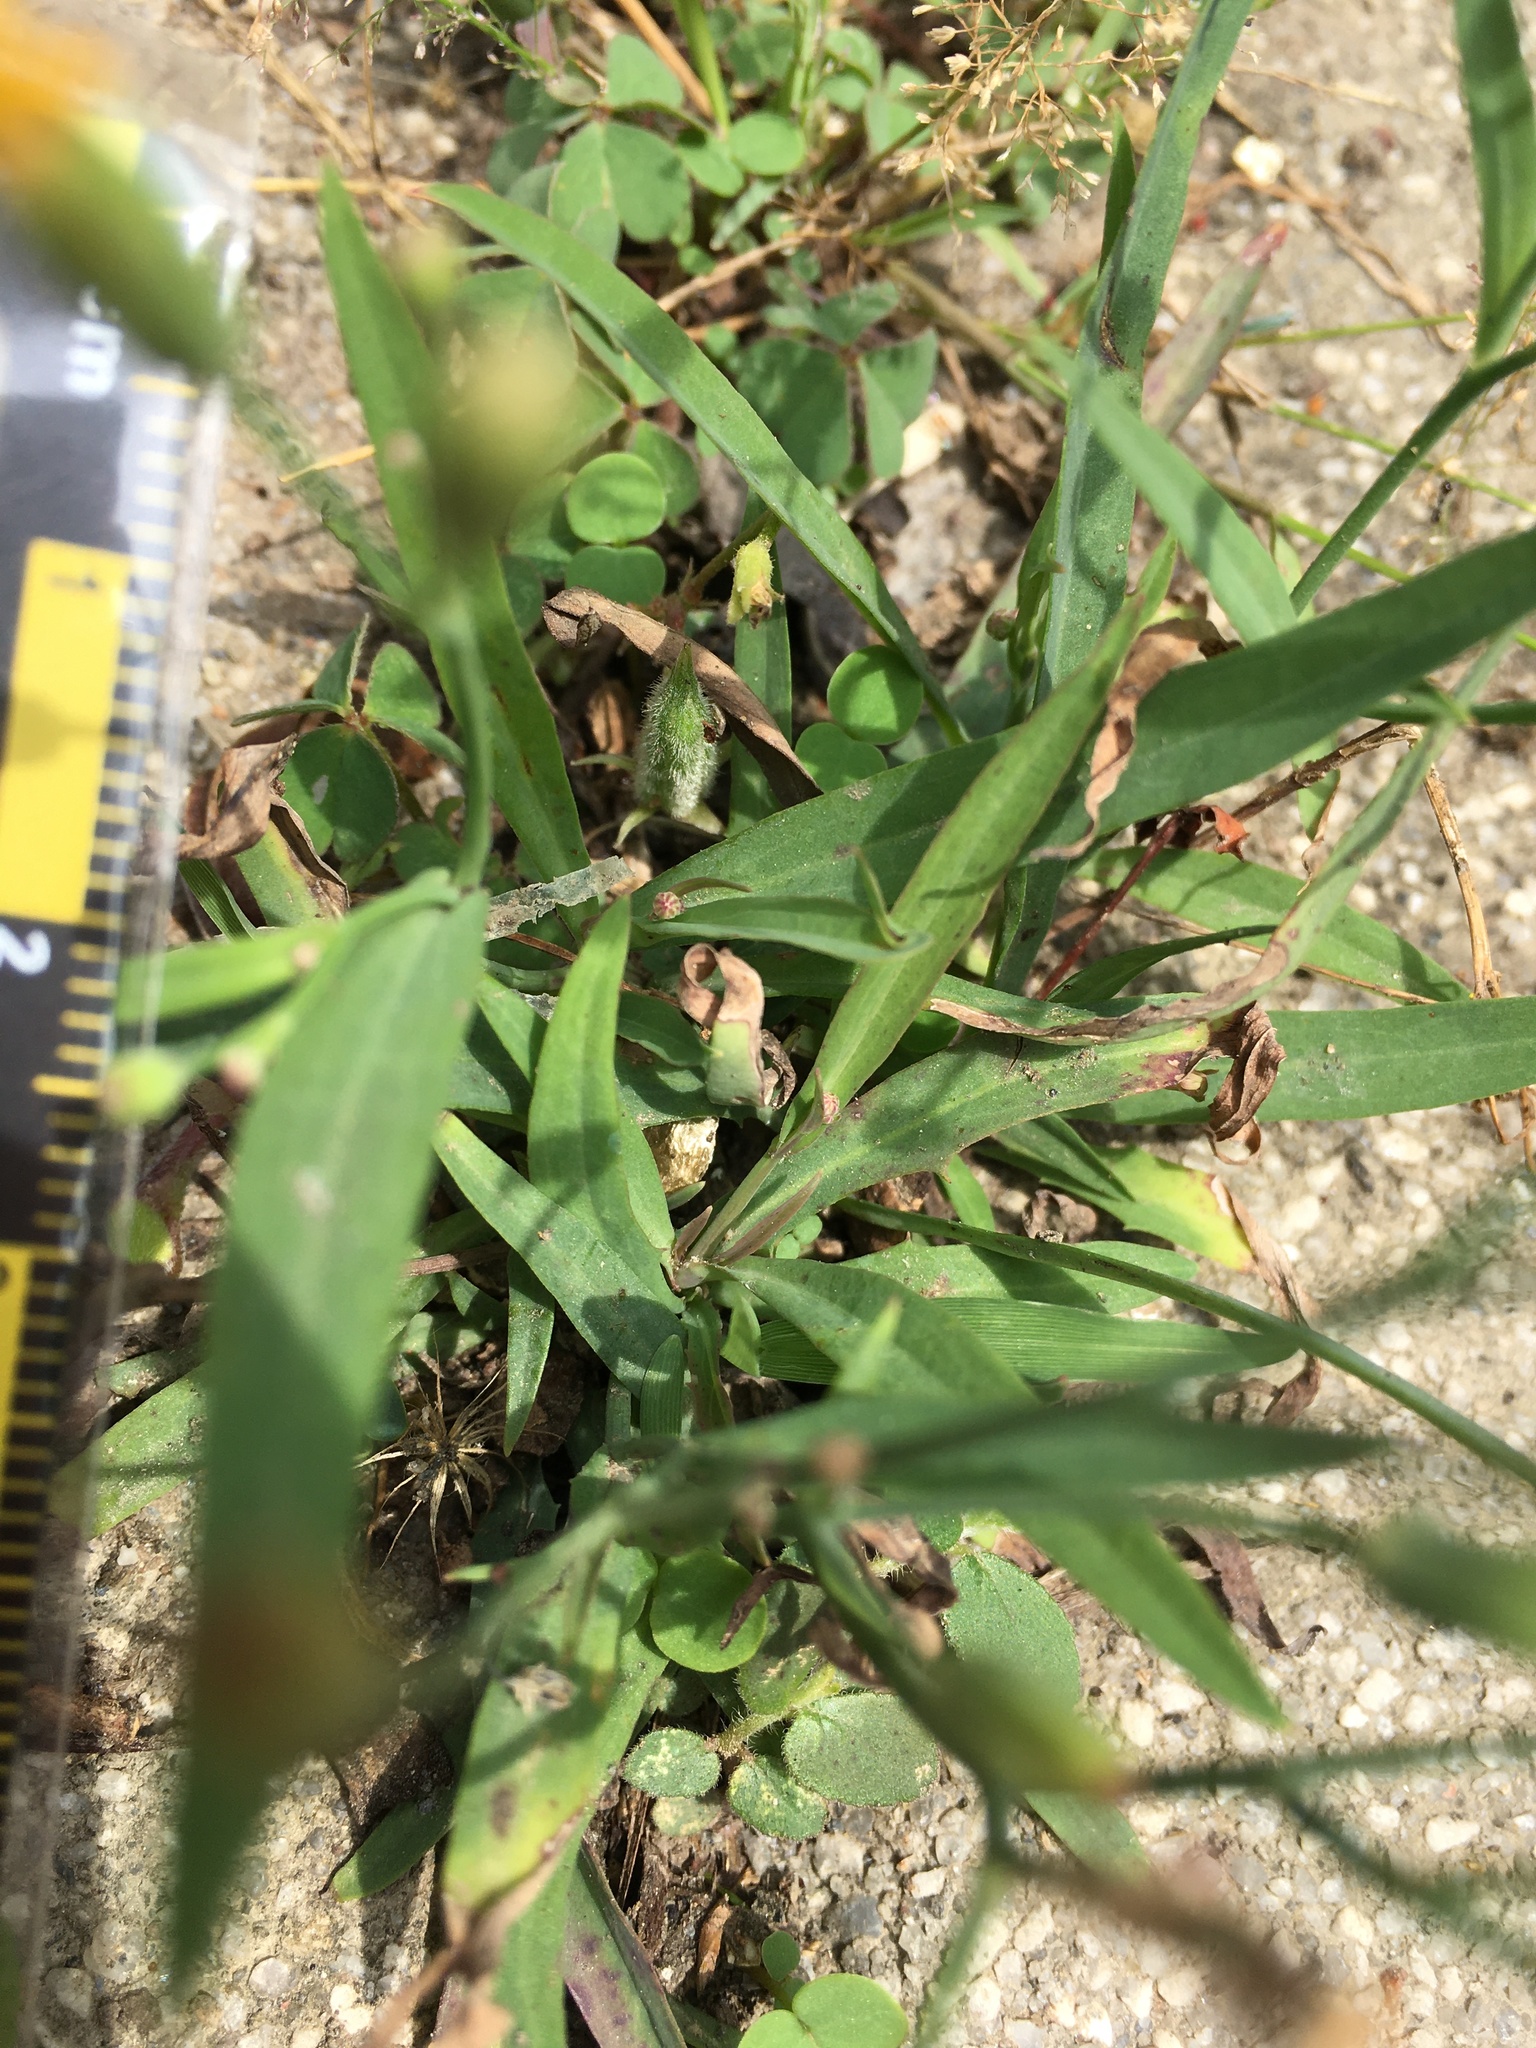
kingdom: Plantae
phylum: Tracheophyta
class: Magnoliopsida
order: Asterales
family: Asteraceae
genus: Ixeris
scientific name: Ixeris chinensis
